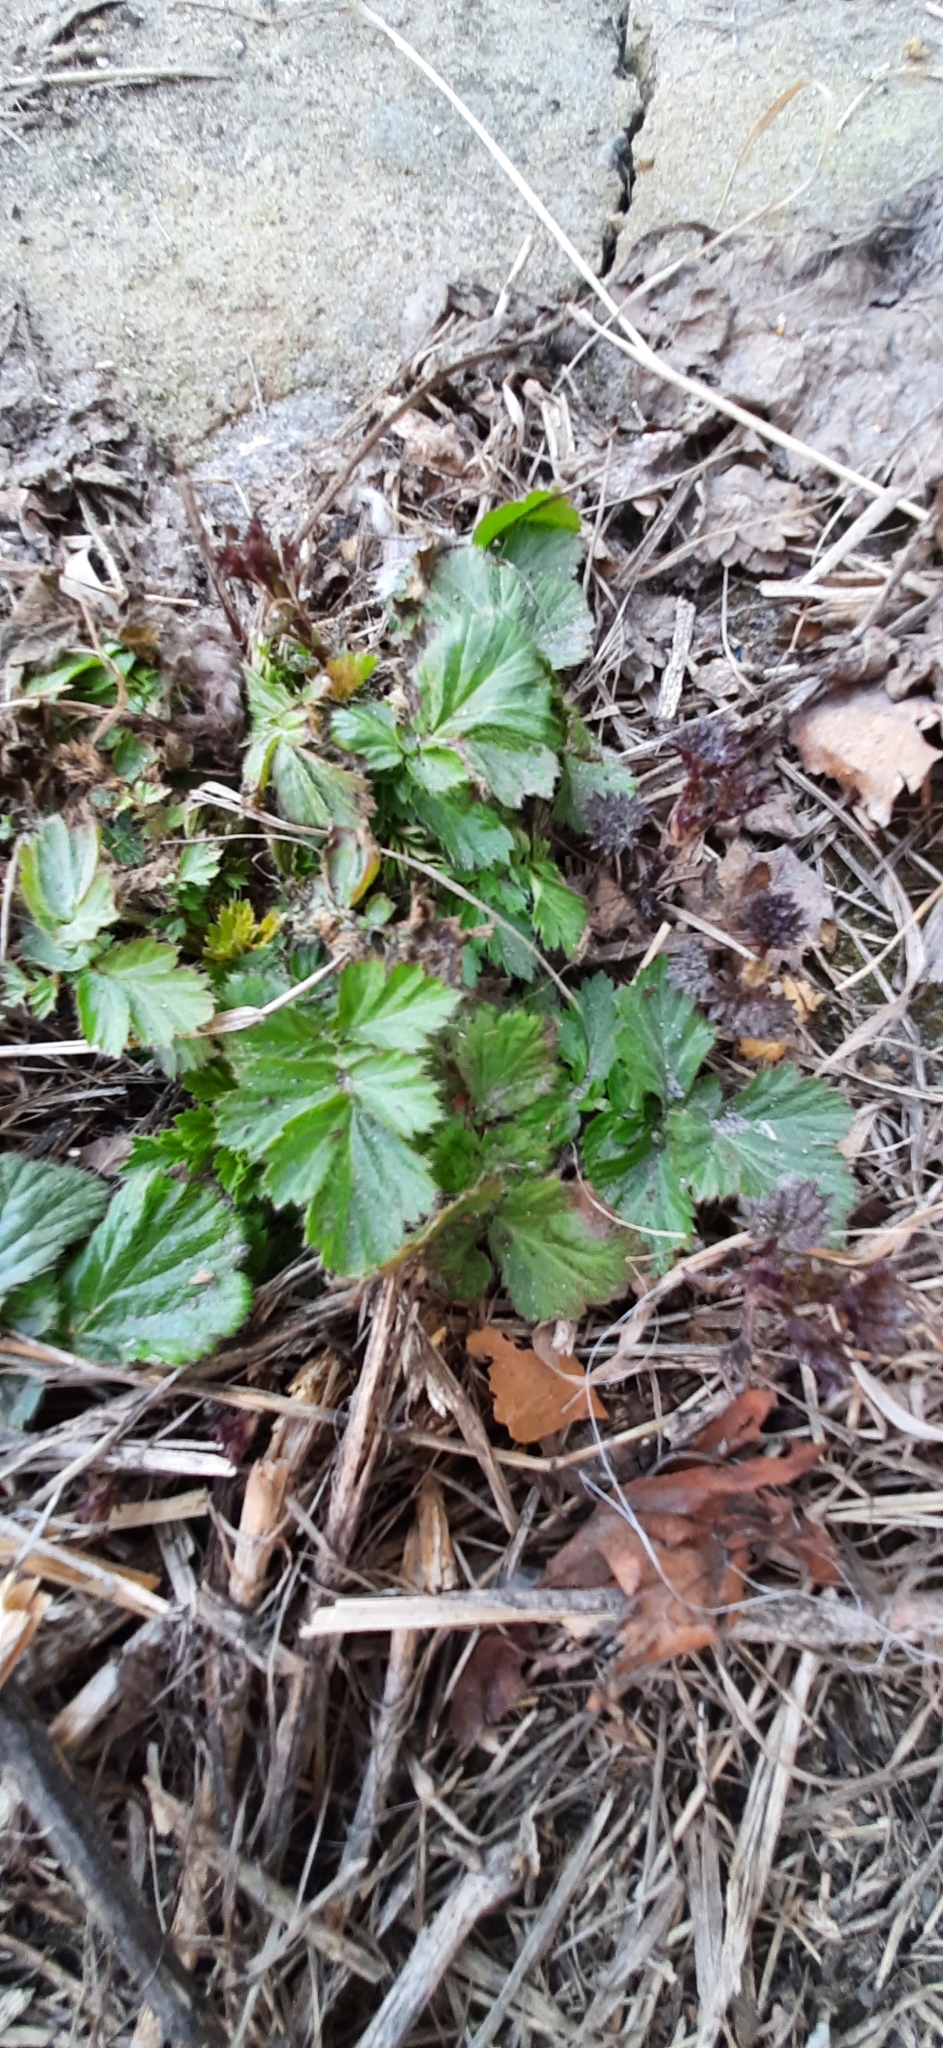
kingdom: Plantae
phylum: Tracheophyta
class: Magnoliopsida
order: Rosales
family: Rosaceae
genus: Geum
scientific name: Geum aleppicum
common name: Yellow avens
